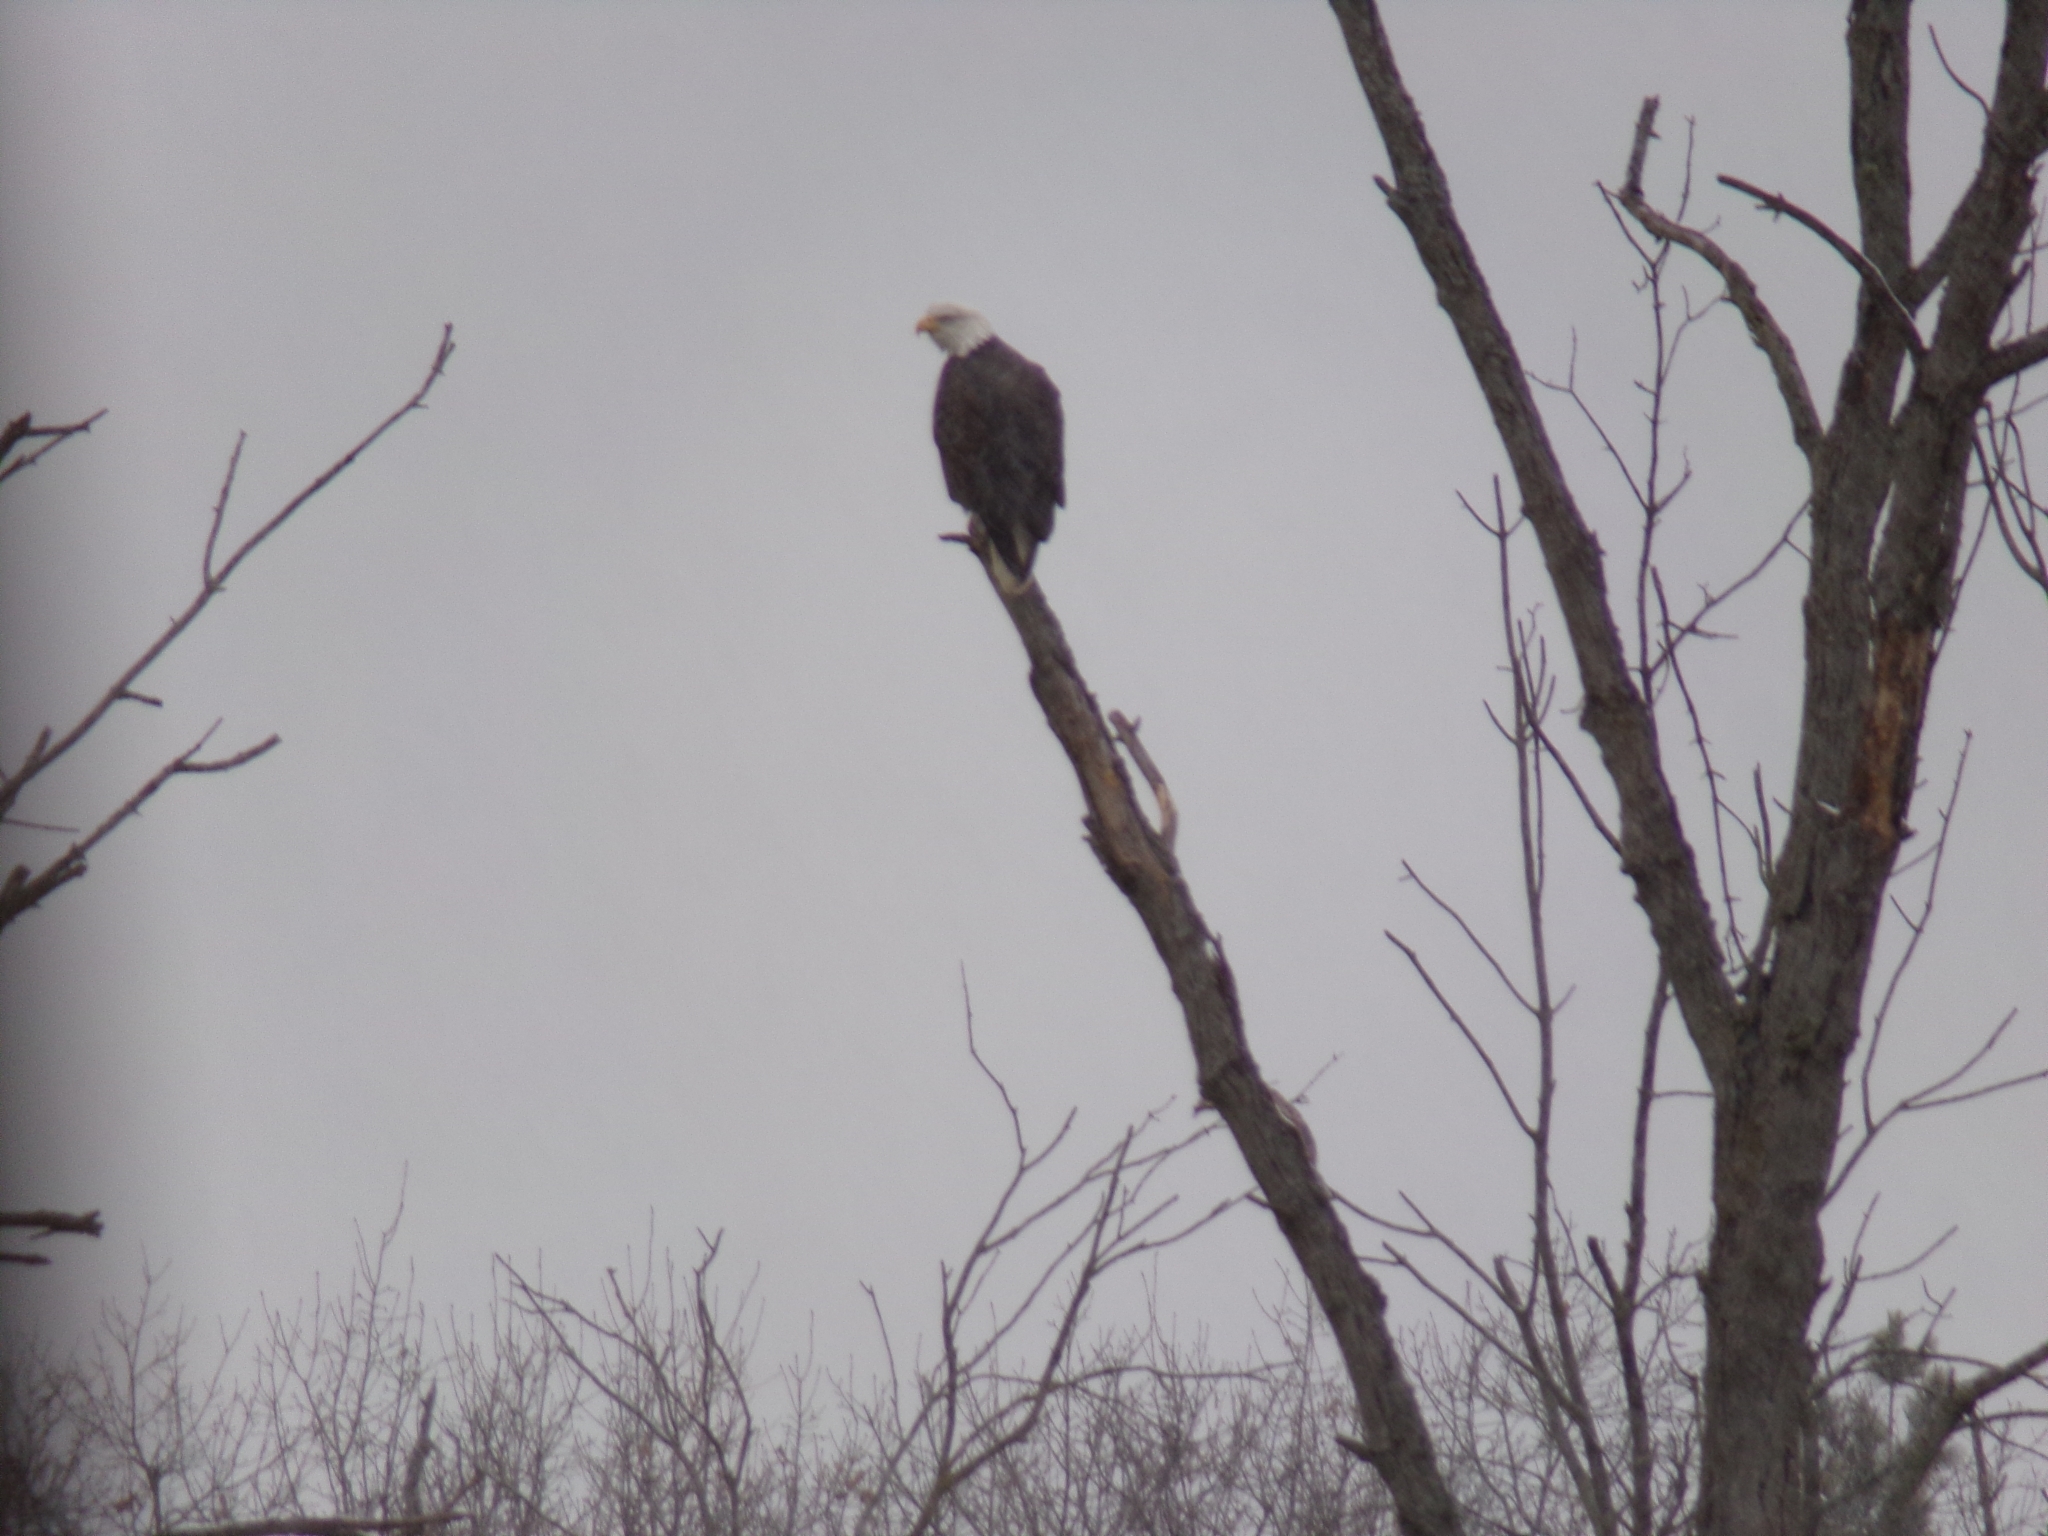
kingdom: Animalia
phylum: Chordata
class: Aves
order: Accipitriformes
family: Accipitridae
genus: Haliaeetus
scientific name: Haliaeetus leucocephalus
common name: Bald eagle
